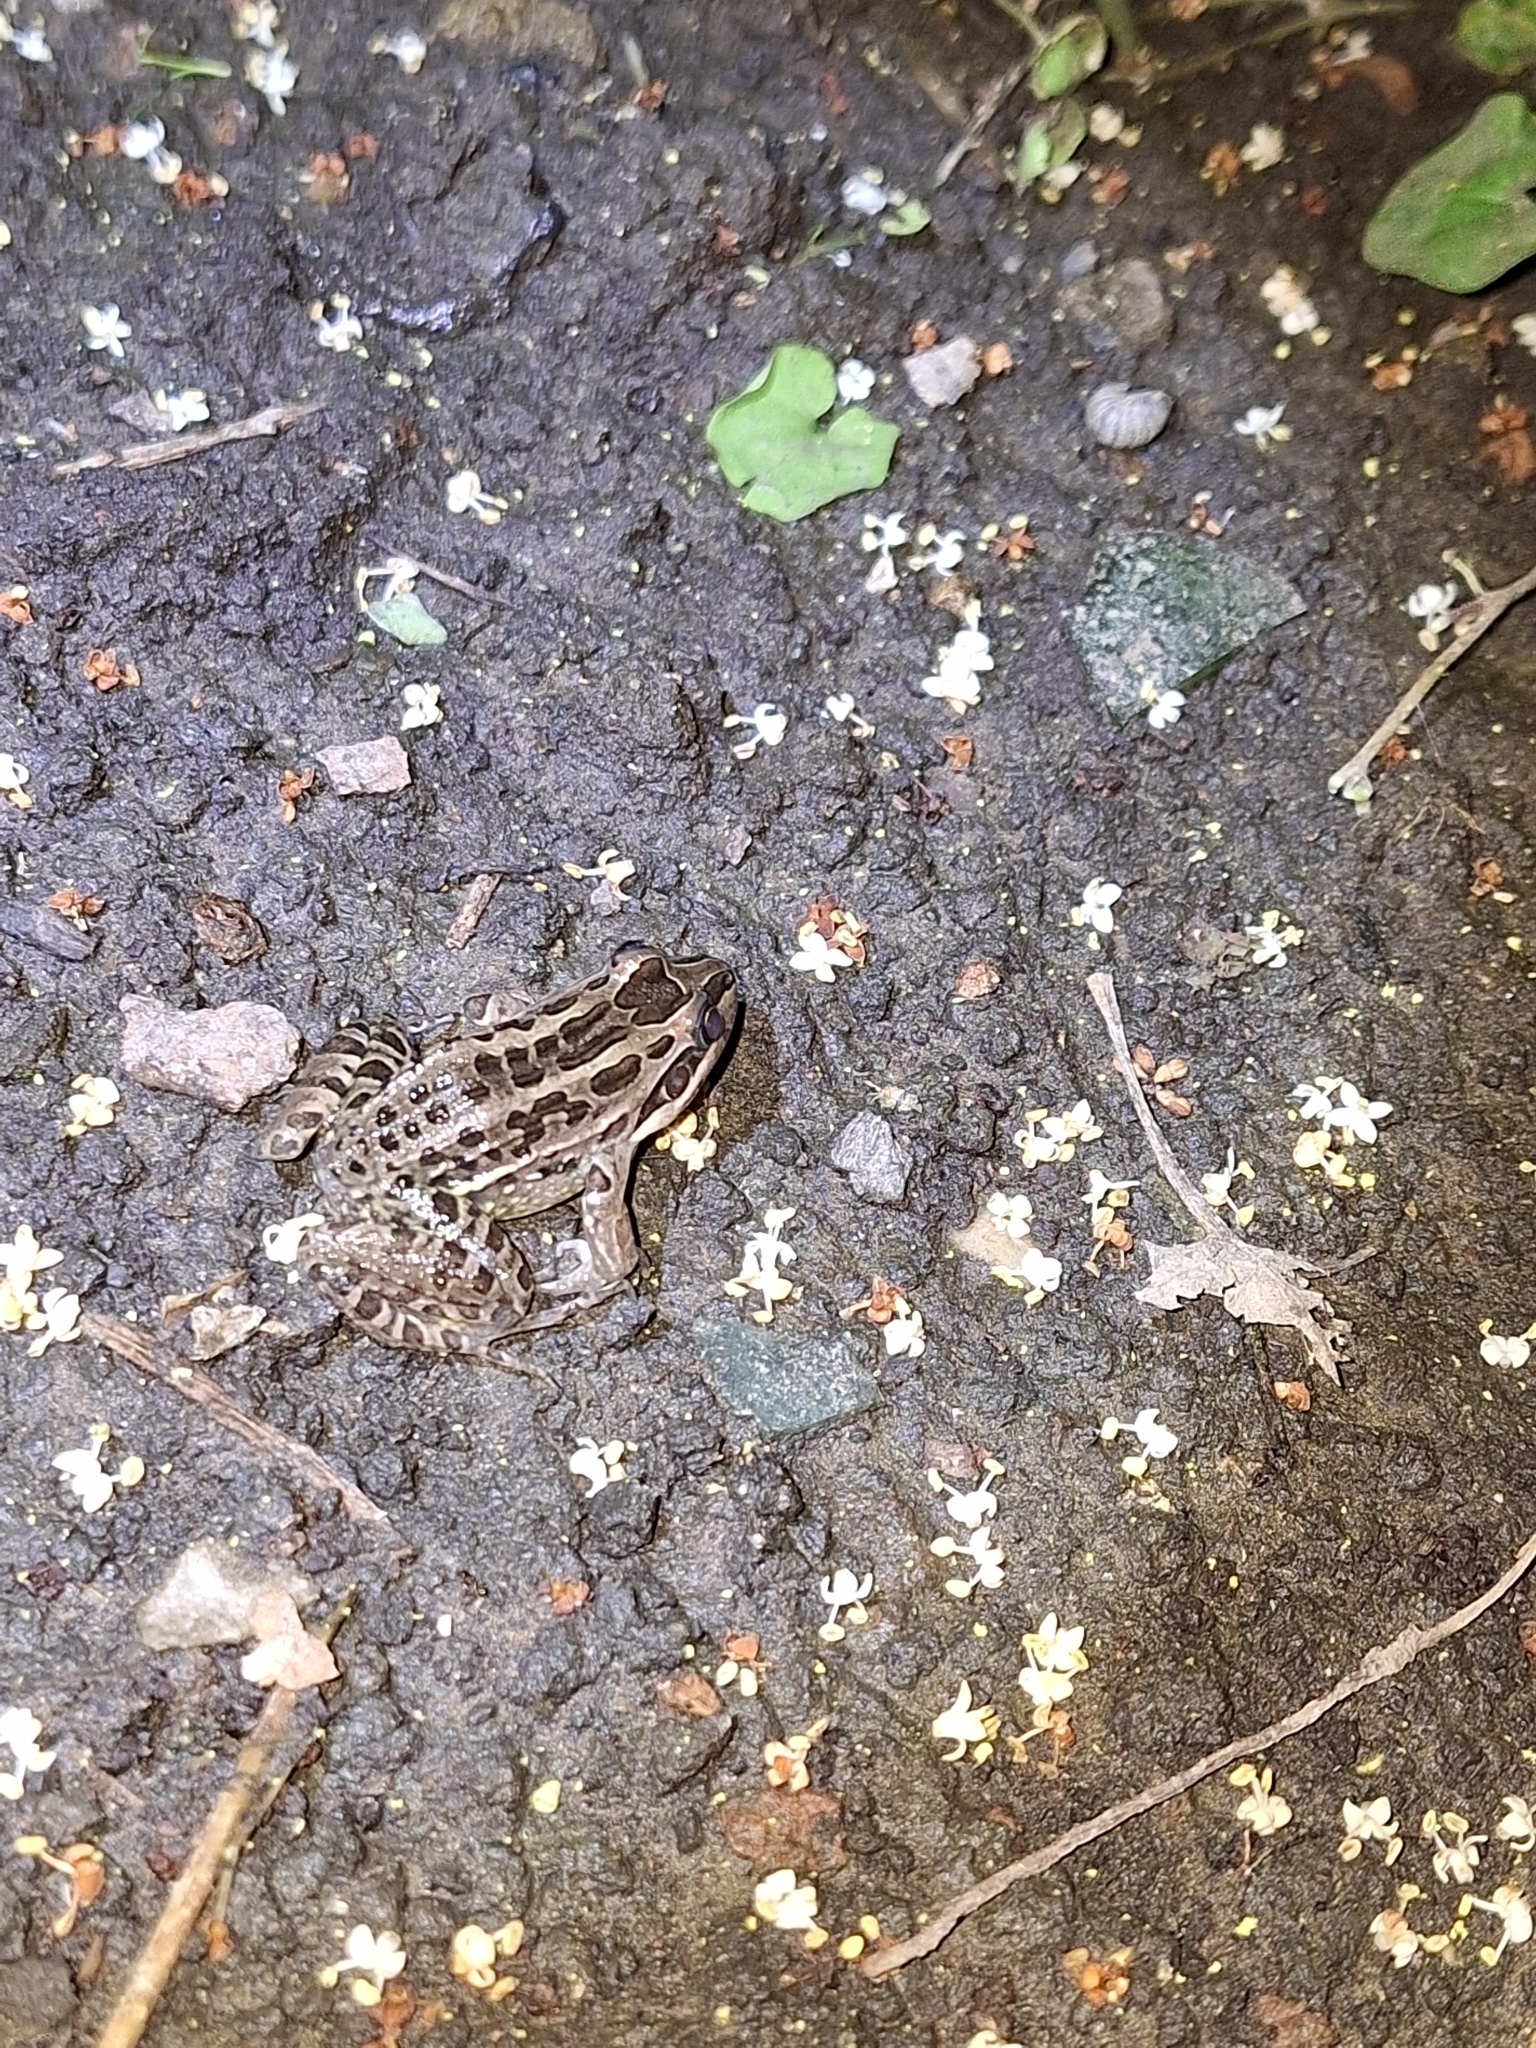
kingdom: Animalia
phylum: Chordata
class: Amphibia
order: Anura
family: Leptodactylidae
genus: Leptodactylus
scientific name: Leptodactylus luctator
